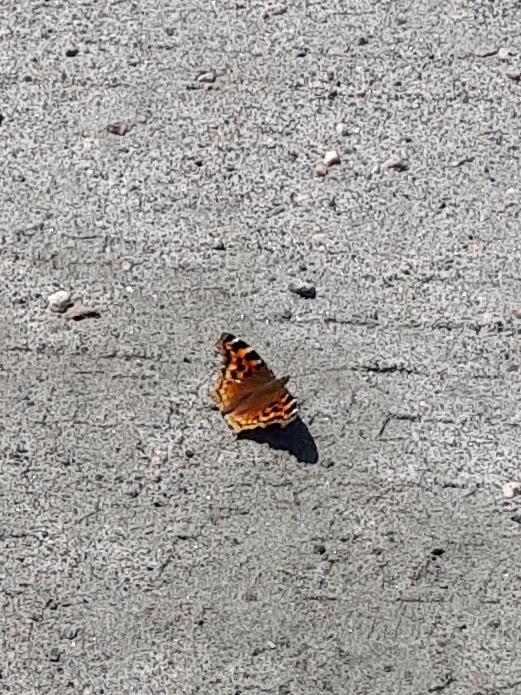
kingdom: Animalia
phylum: Arthropoda
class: Insecta
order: Lepidoptera
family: Nymphalidae
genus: Polygonia
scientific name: Polygonia vaualbum
